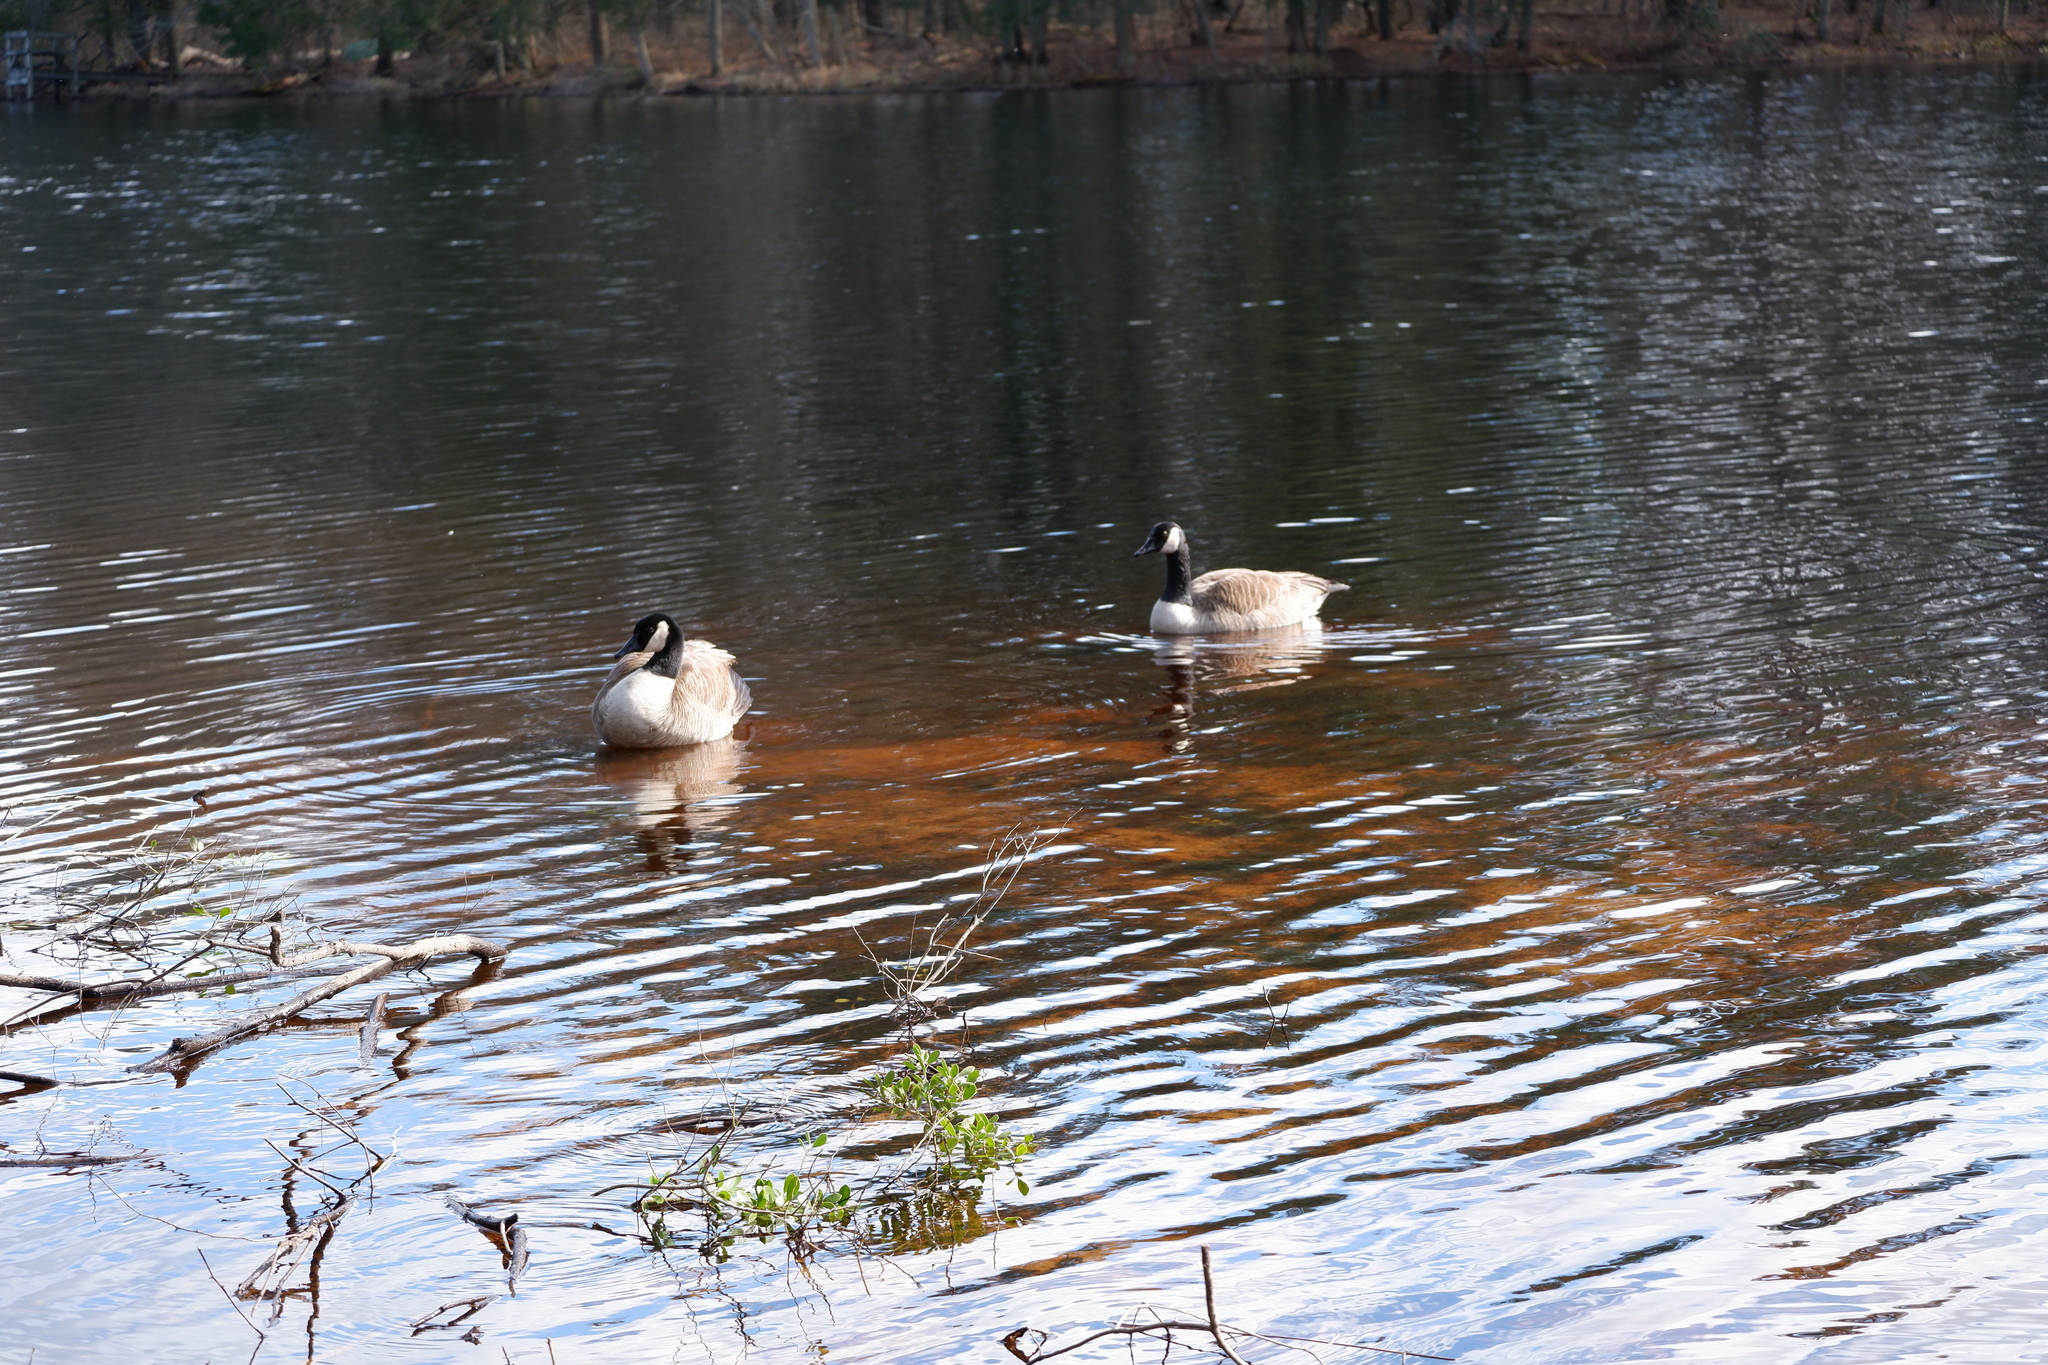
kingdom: Animalia
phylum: Chordata
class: Aves
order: Anseriformes
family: Anatidae
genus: Branta
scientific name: Branta canadensis
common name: Canada goose
